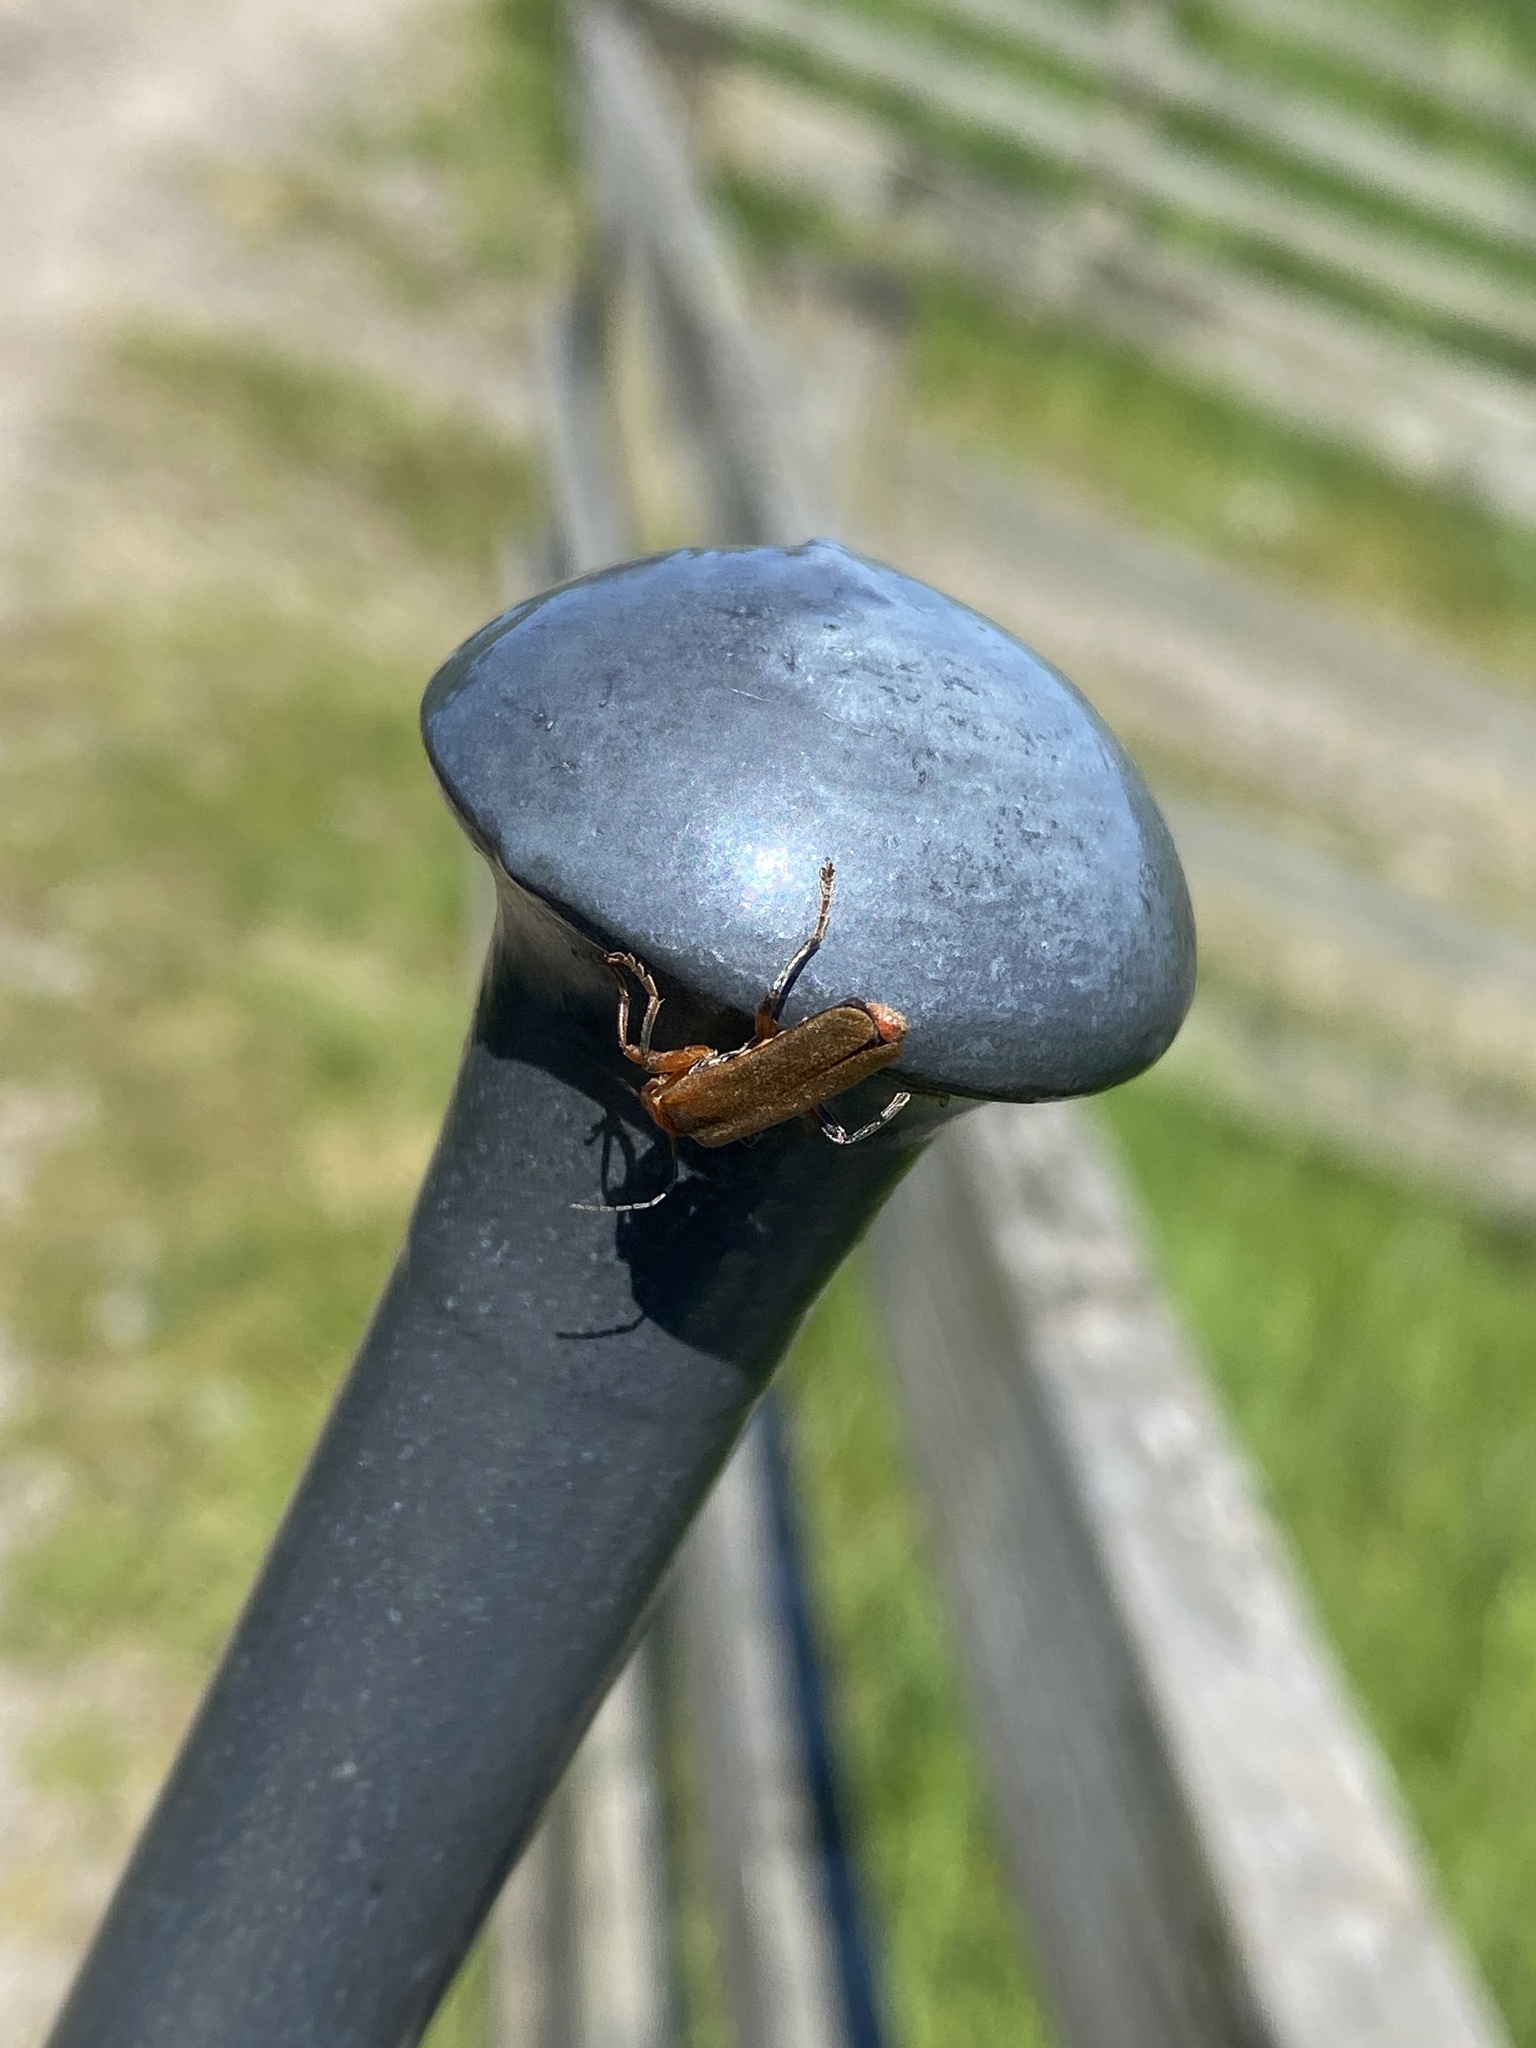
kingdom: Animalia
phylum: Arthropoda
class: Insecta
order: Coleoptera
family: Cantharidae
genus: Cantharis
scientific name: Cantharis livida
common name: Livid soldier beetle
